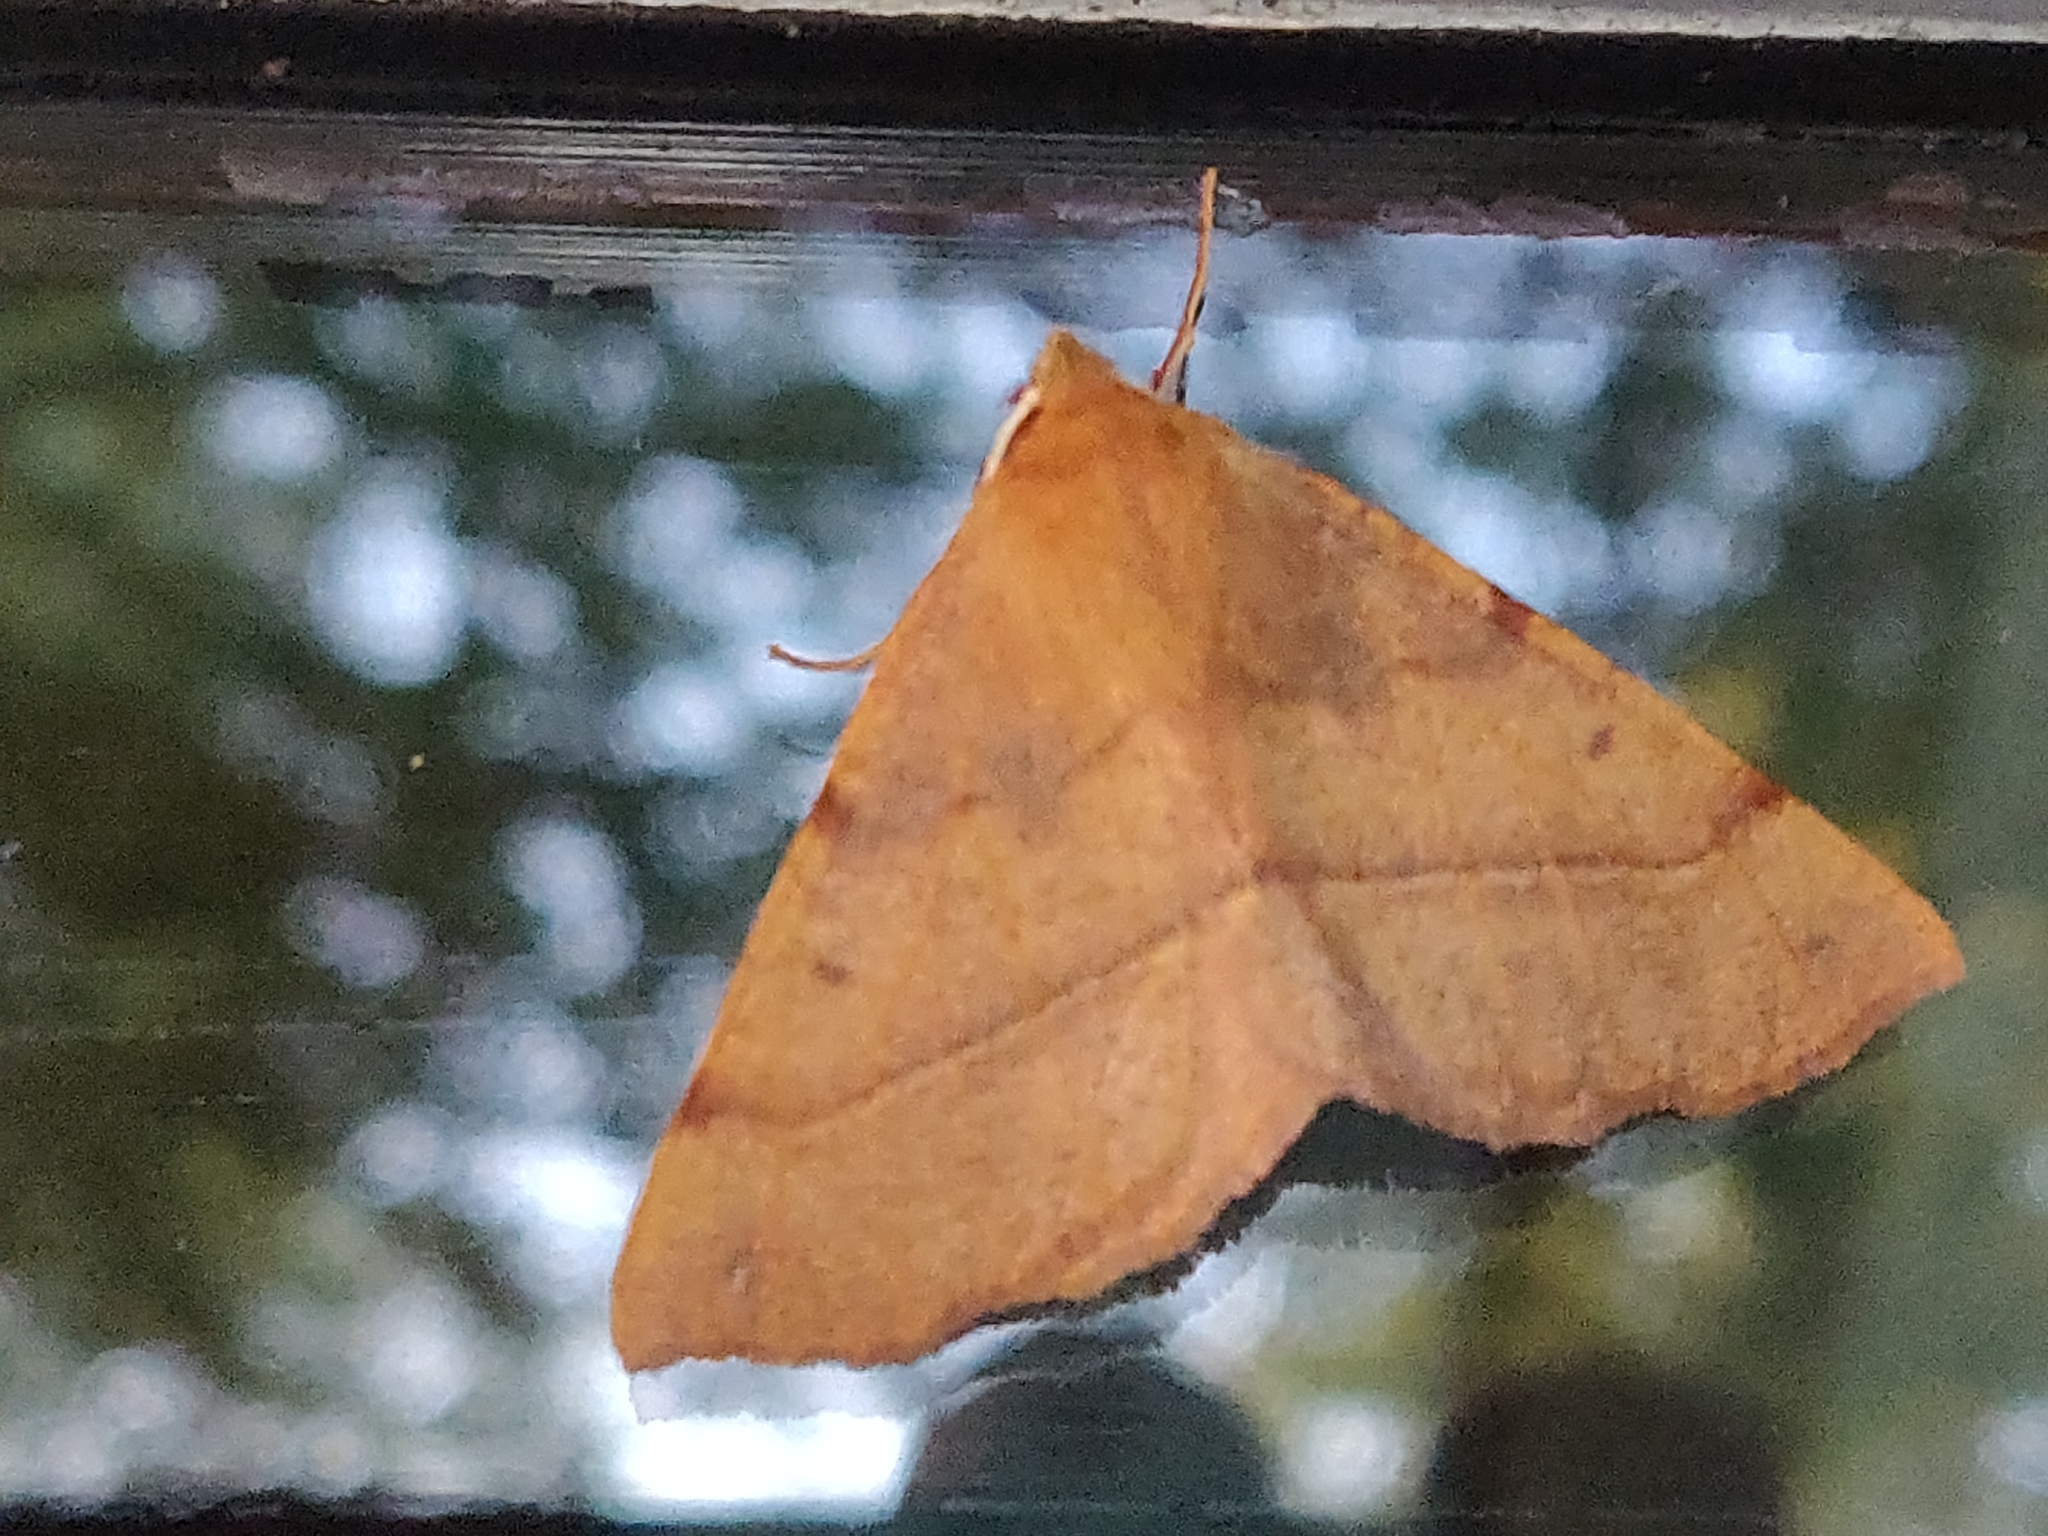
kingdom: Animalia
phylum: Arthropoda
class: Insecta
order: Lepidoptera
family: Geometridae
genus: Colotois
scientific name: Colotois pennaria
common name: Feathered thorn
